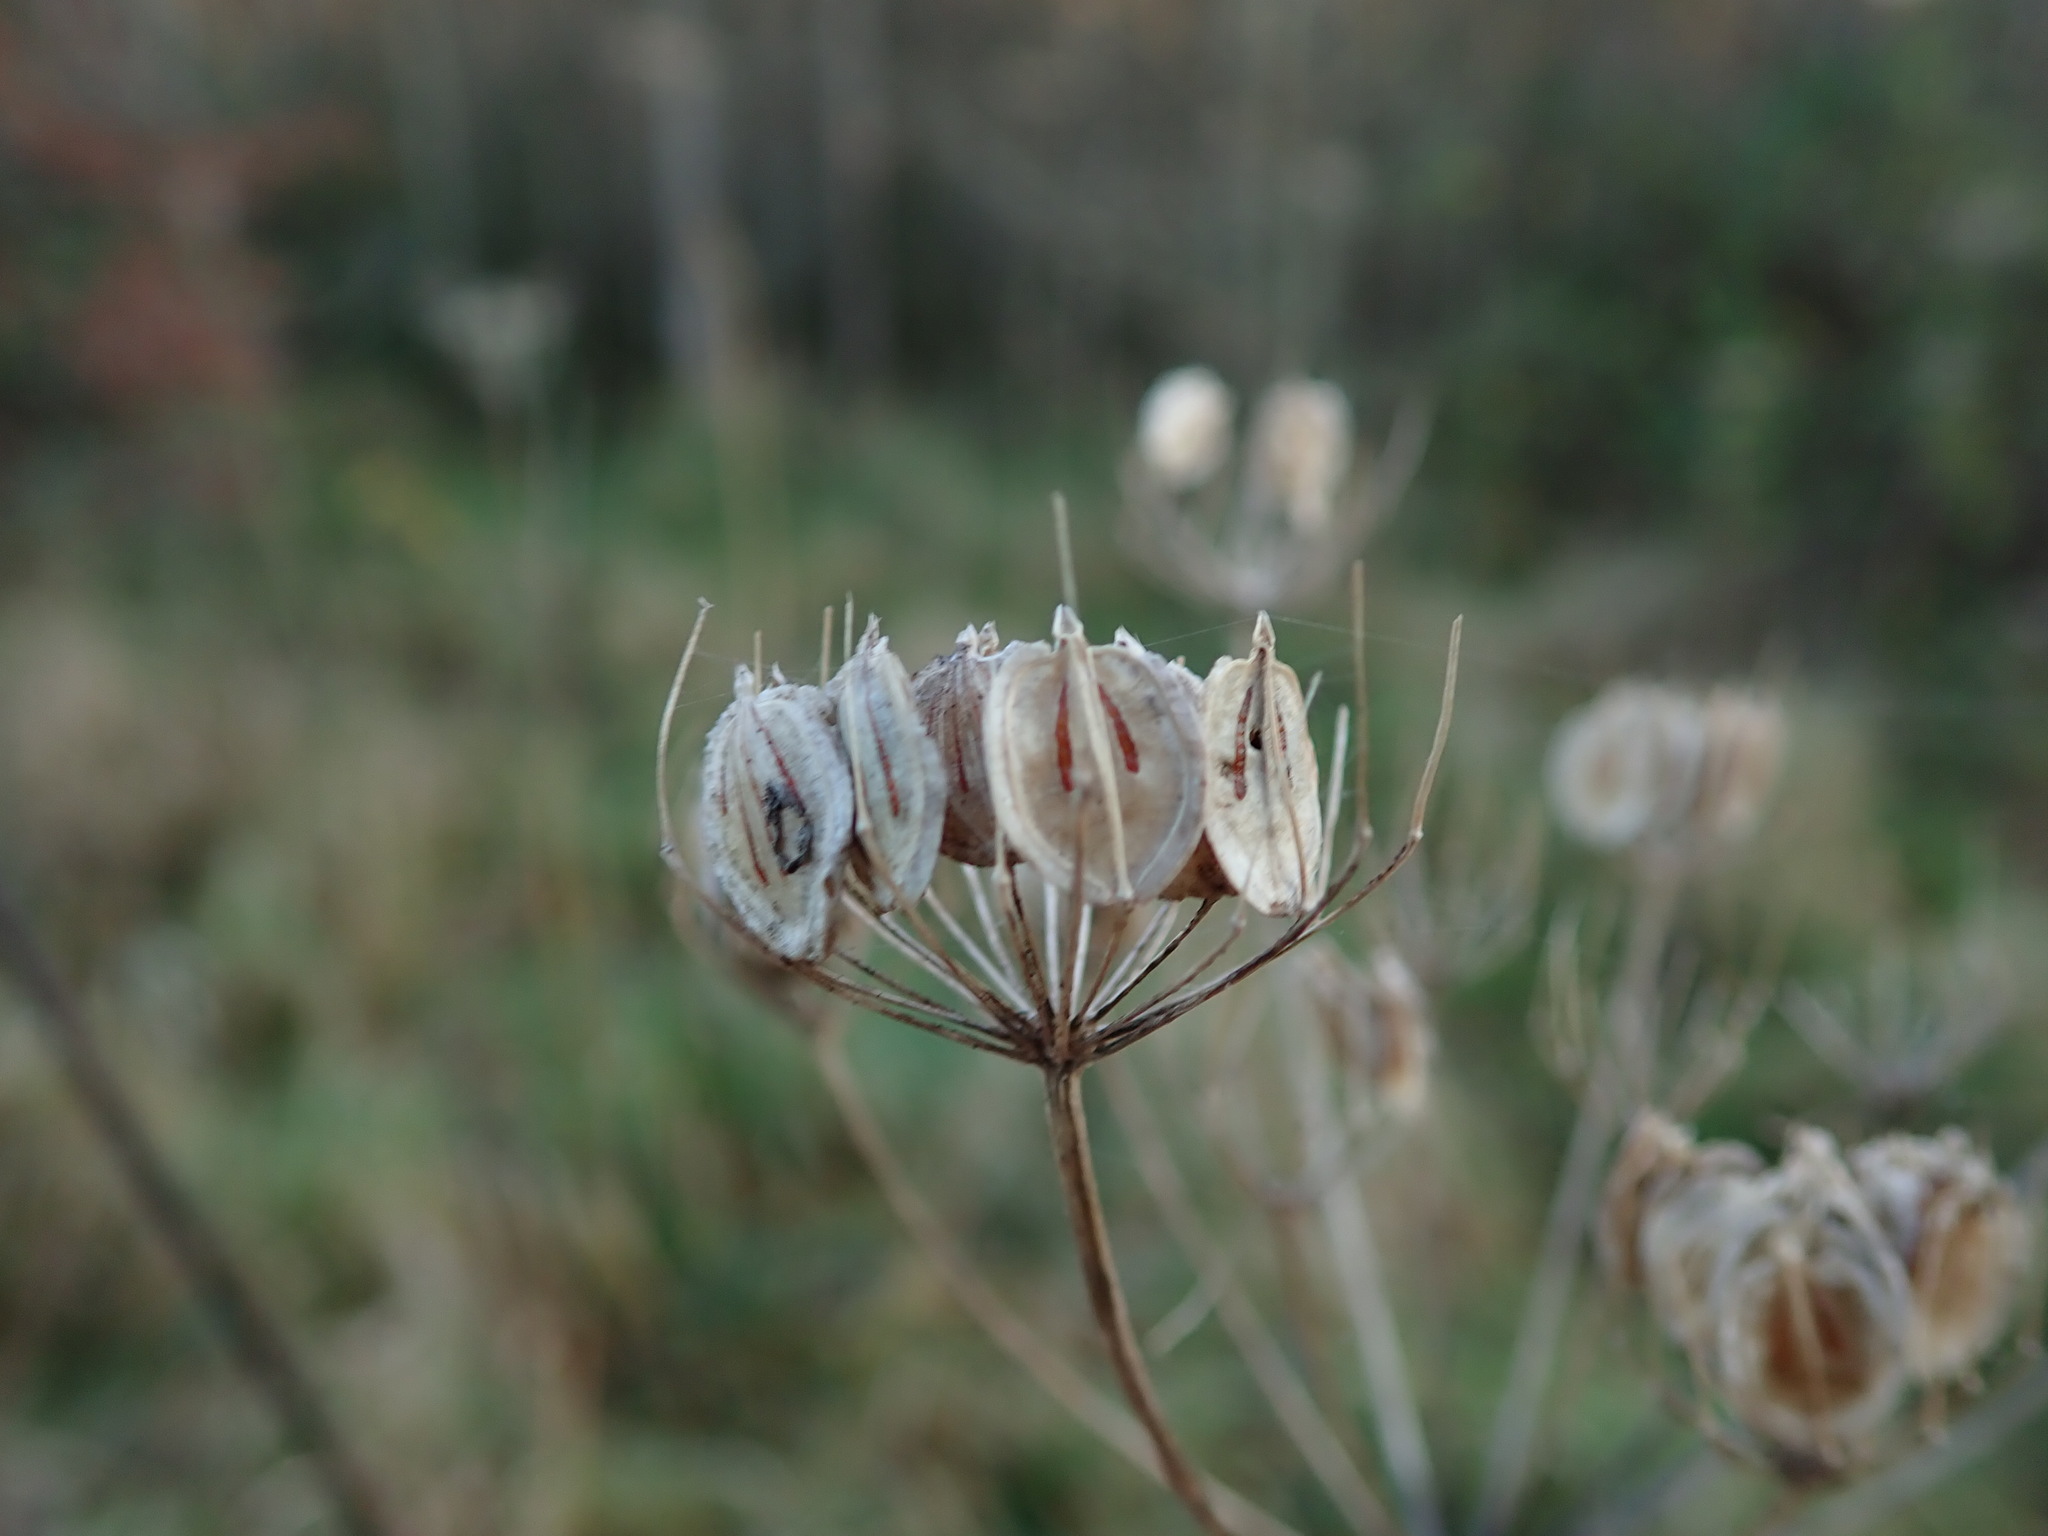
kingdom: Plantae
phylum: Tracheophyta
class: Magnoliopsida
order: Apiales
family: Apiaceae
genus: Heracleum
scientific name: Heracleum sphondylium
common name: Hogweed
